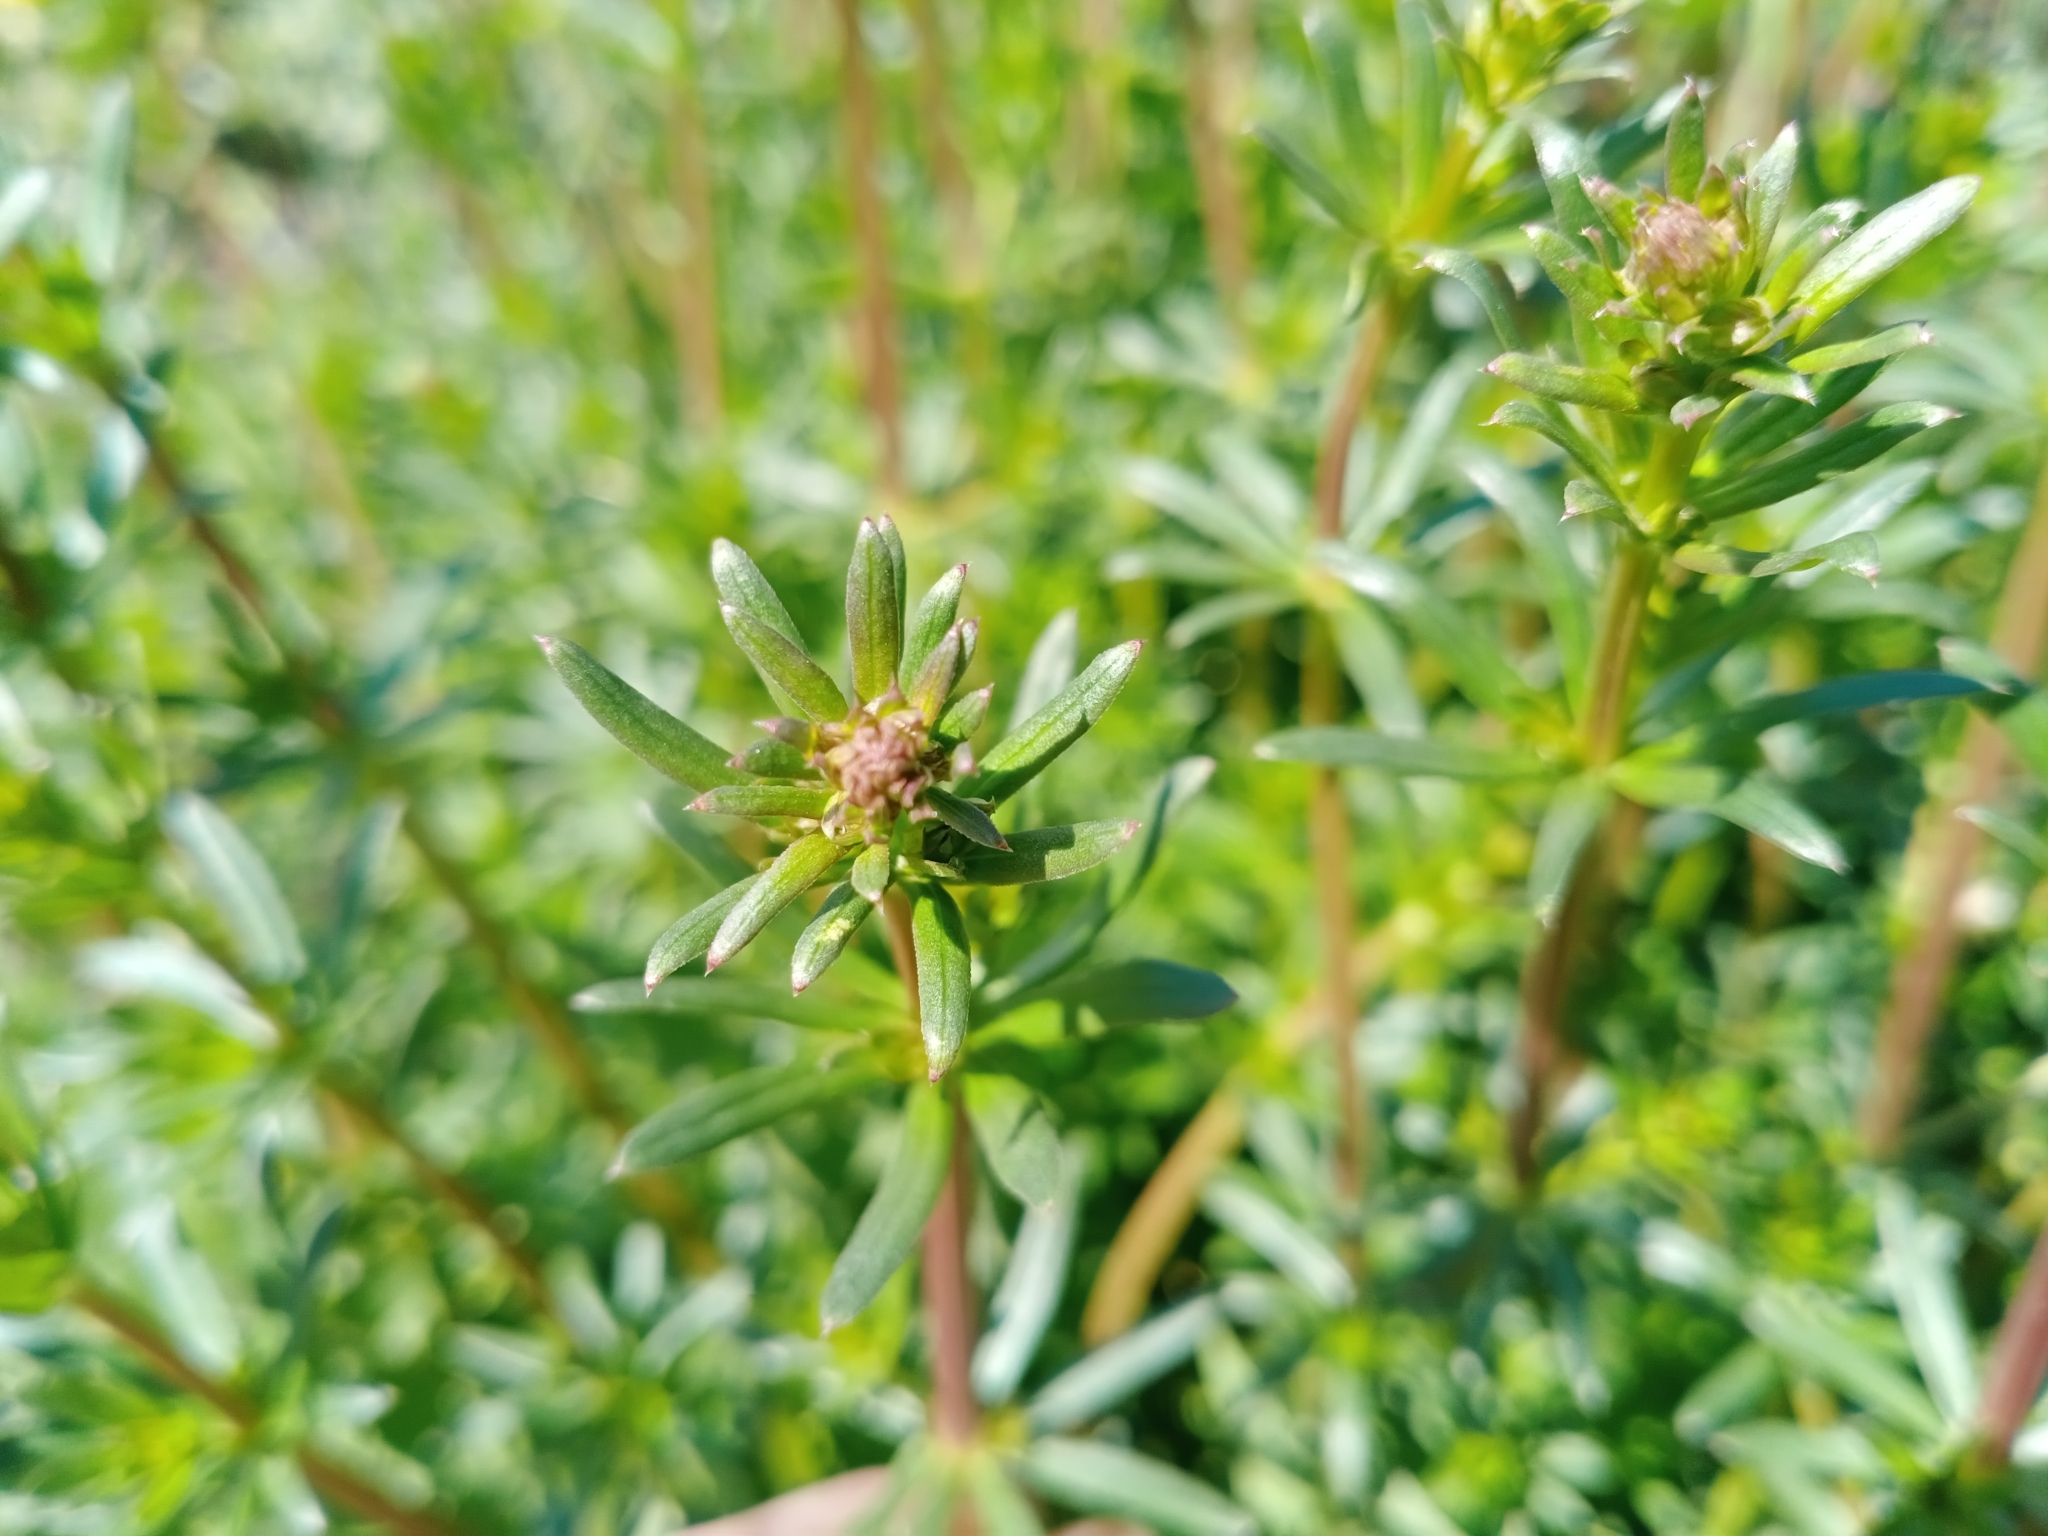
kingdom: Plantae
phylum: Tracheophyta
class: Magnoliopsida
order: Gentianales
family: Rubiaceae
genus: Galium
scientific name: Galium mollugo
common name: Hedge bedstraw
